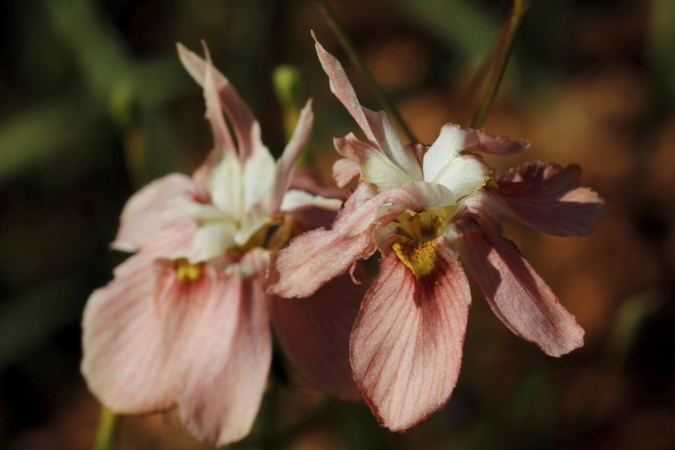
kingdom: Plantae
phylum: Tracheophyta
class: Liliopsida
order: Asparagales
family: Iridaceae
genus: Moraea
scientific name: Moraea gawleri
